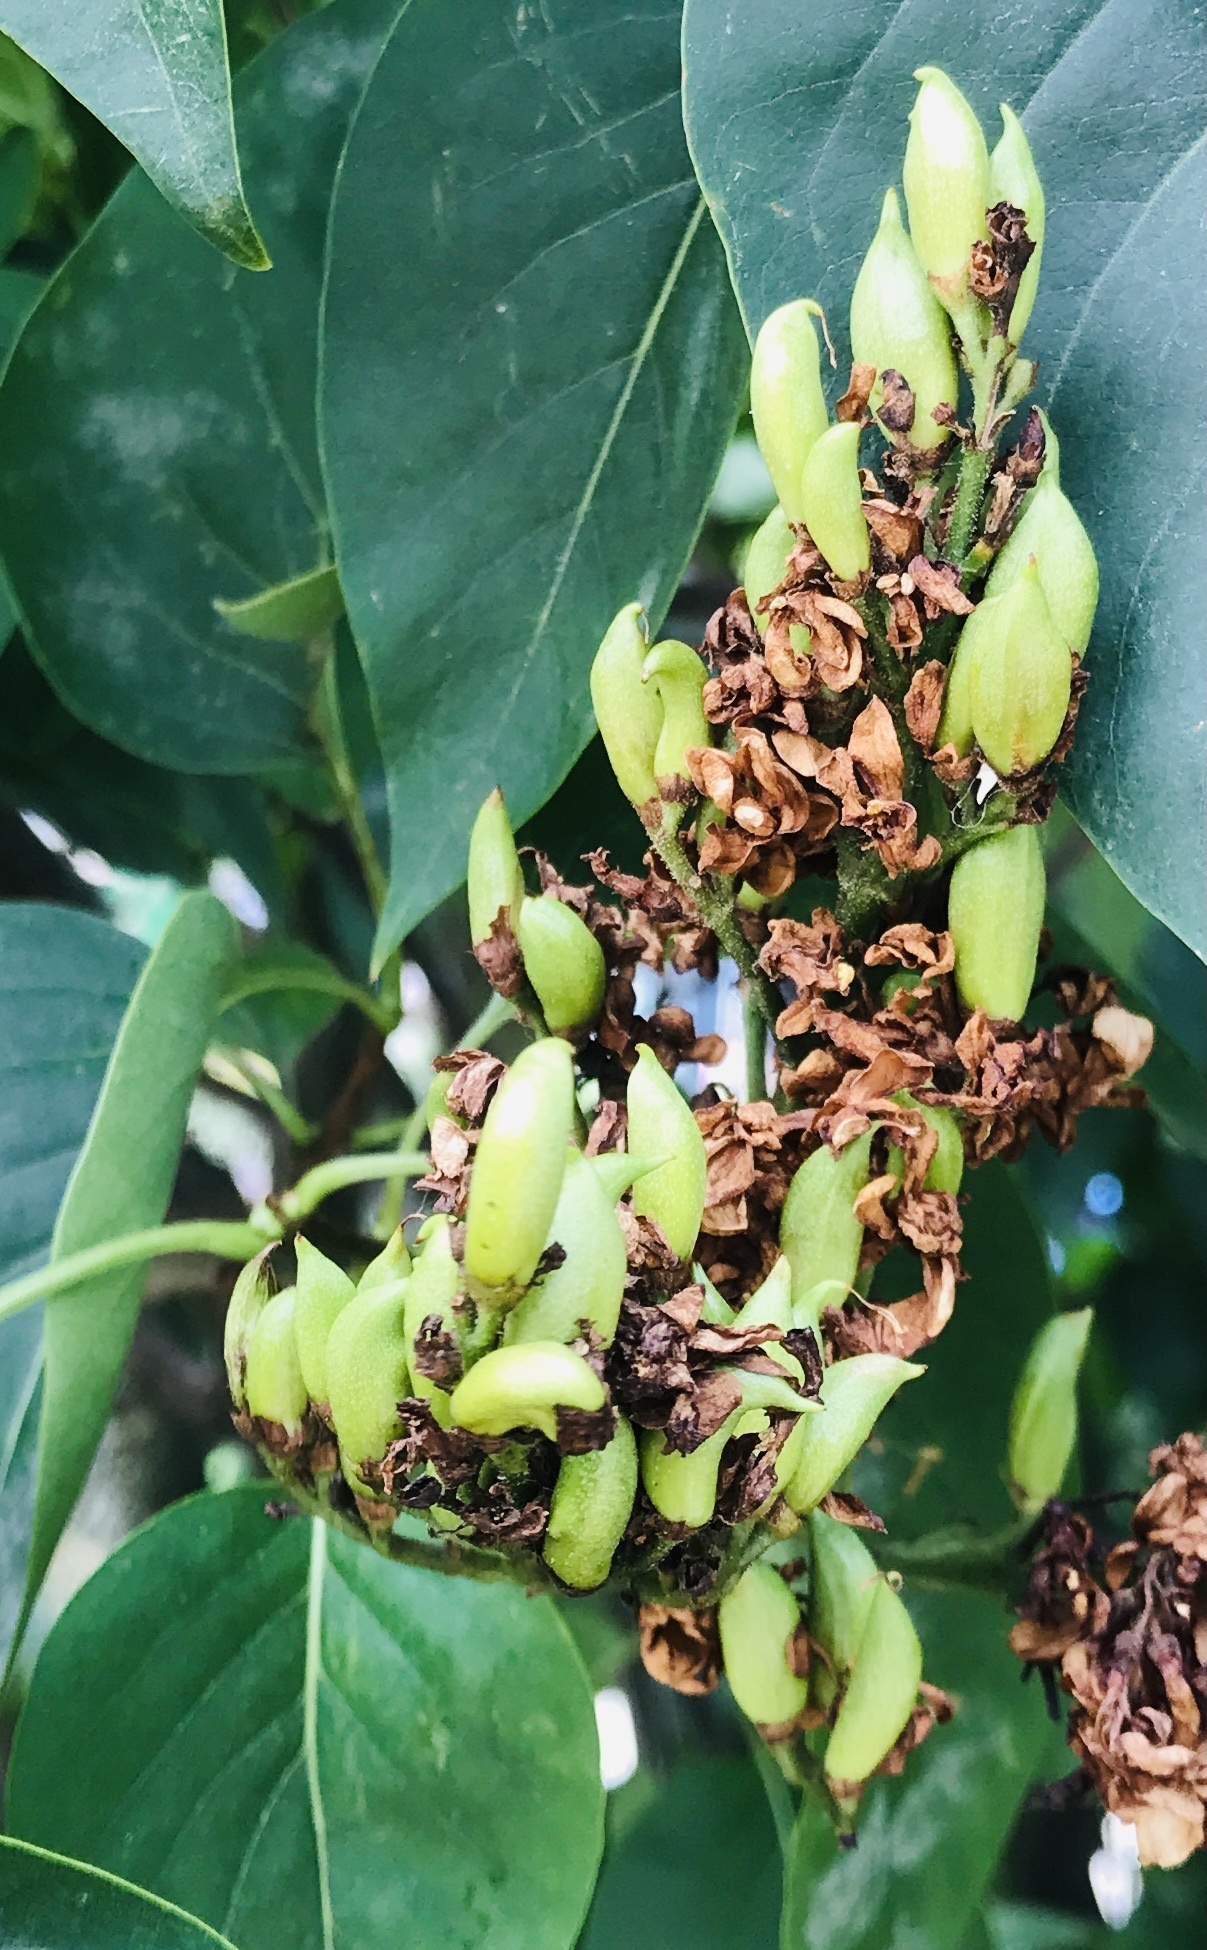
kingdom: Plantae
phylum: Tracheophyta
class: Magnoliopsida
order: Lamiales
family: Oleaceae
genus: Syringa
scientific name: Syringa vulgaris
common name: Common lilac
